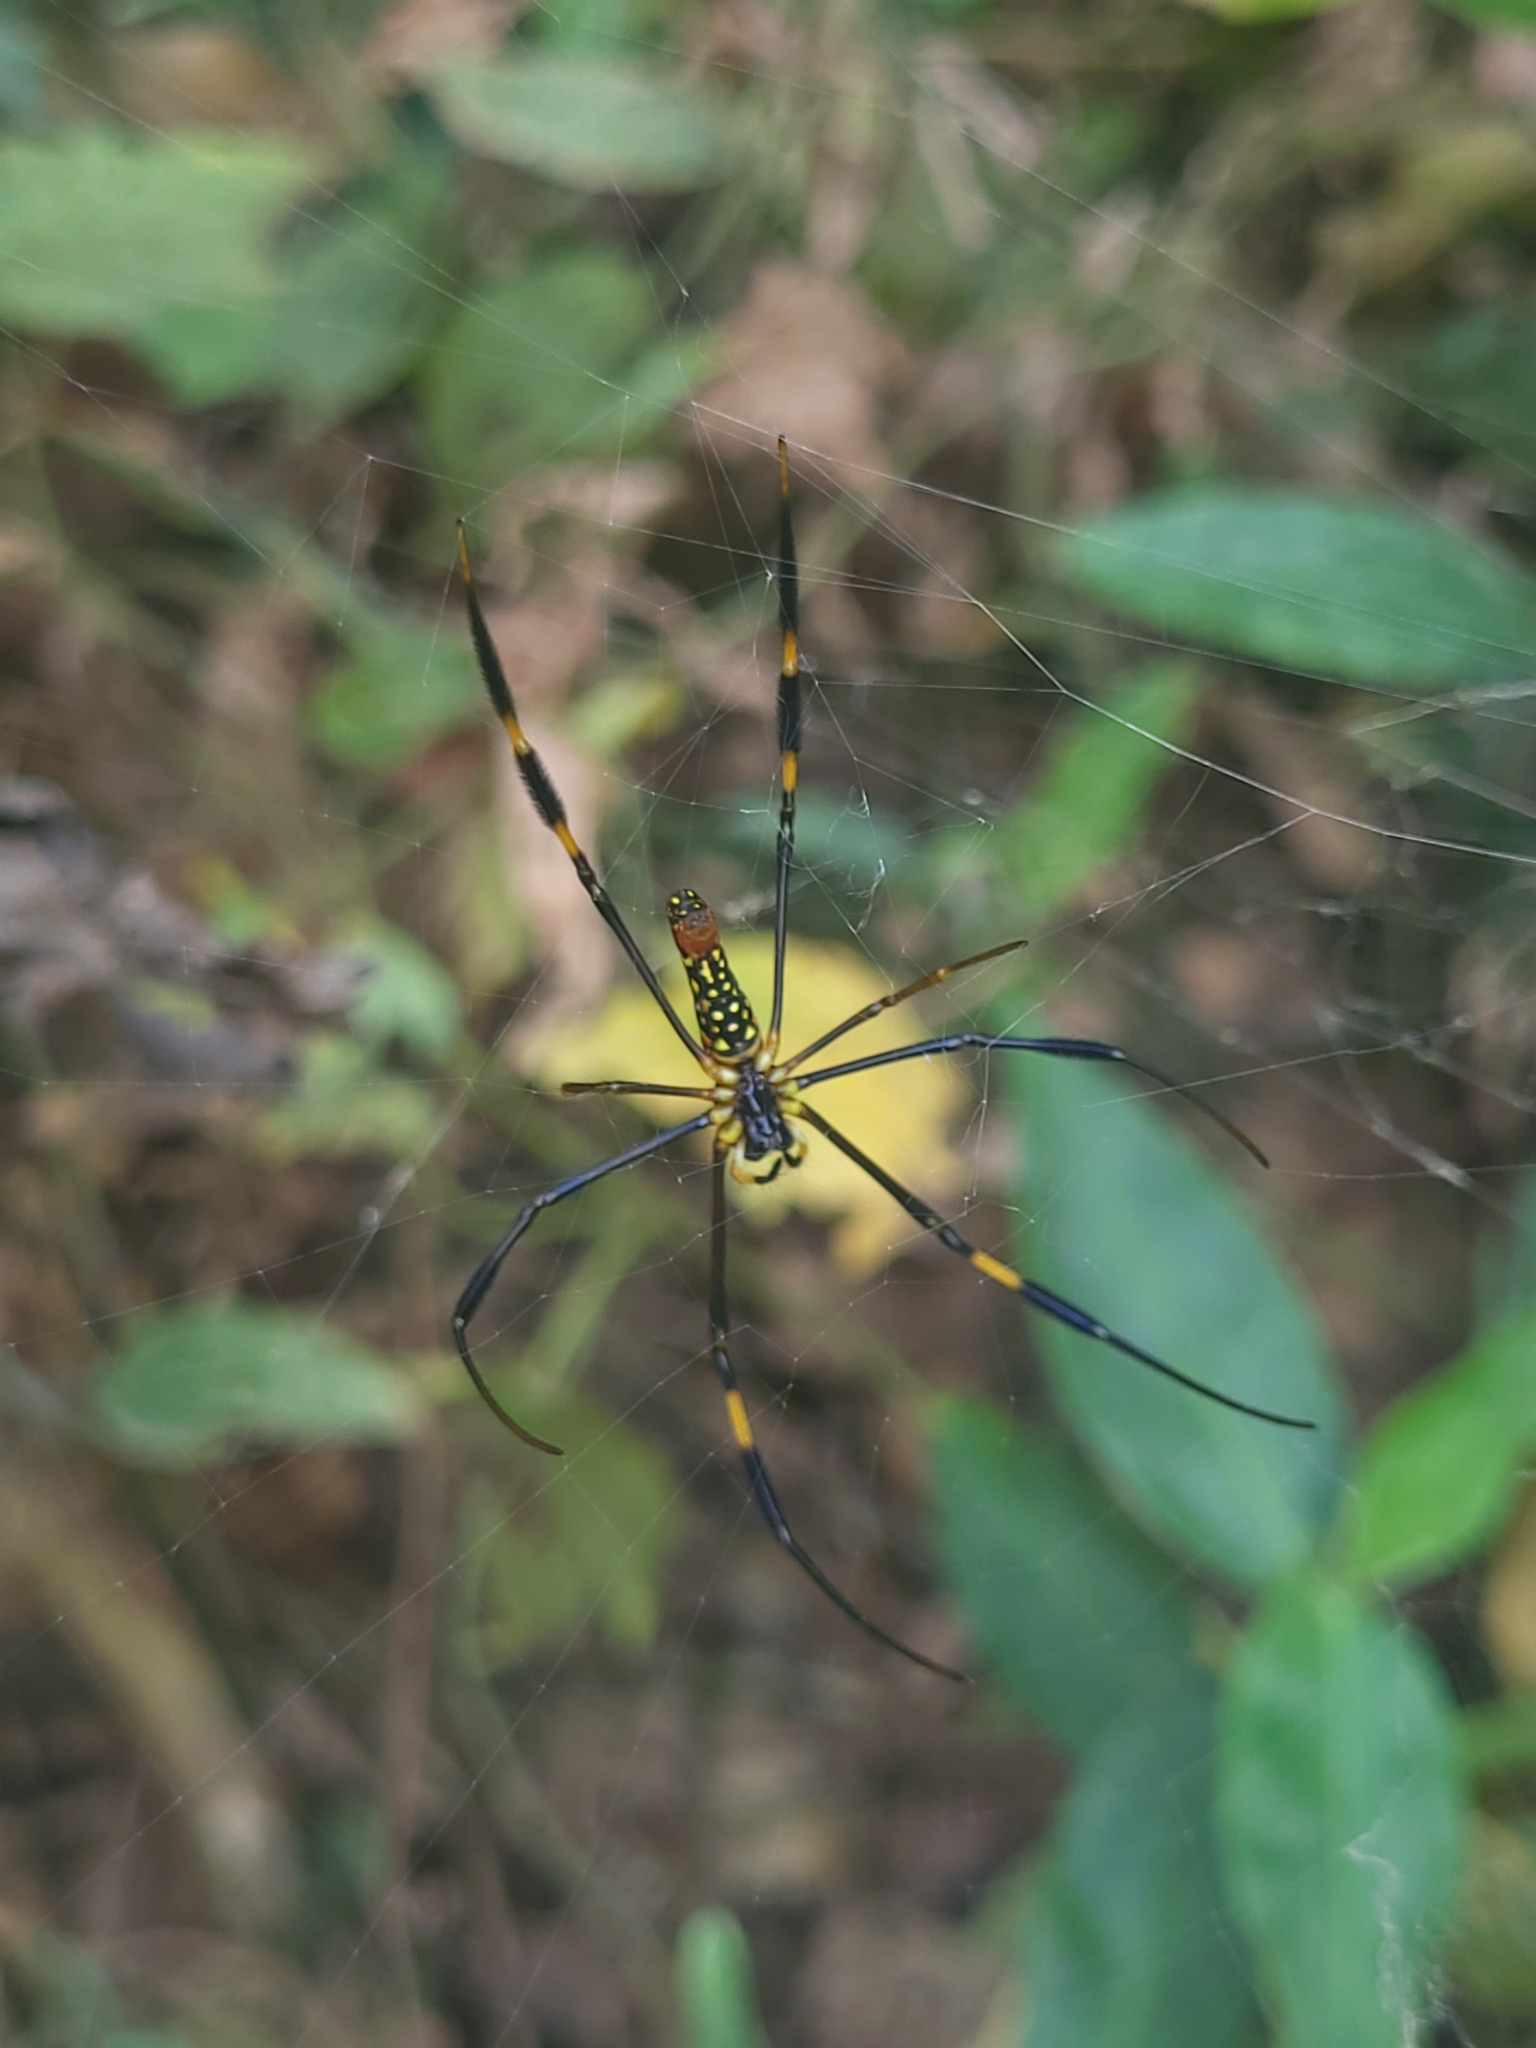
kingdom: Animalia
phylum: Arthropoda
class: Arachnida
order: Araneae
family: Araneidae
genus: Nephila
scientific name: Nephila pilipes
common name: Giant golden orb weaver
